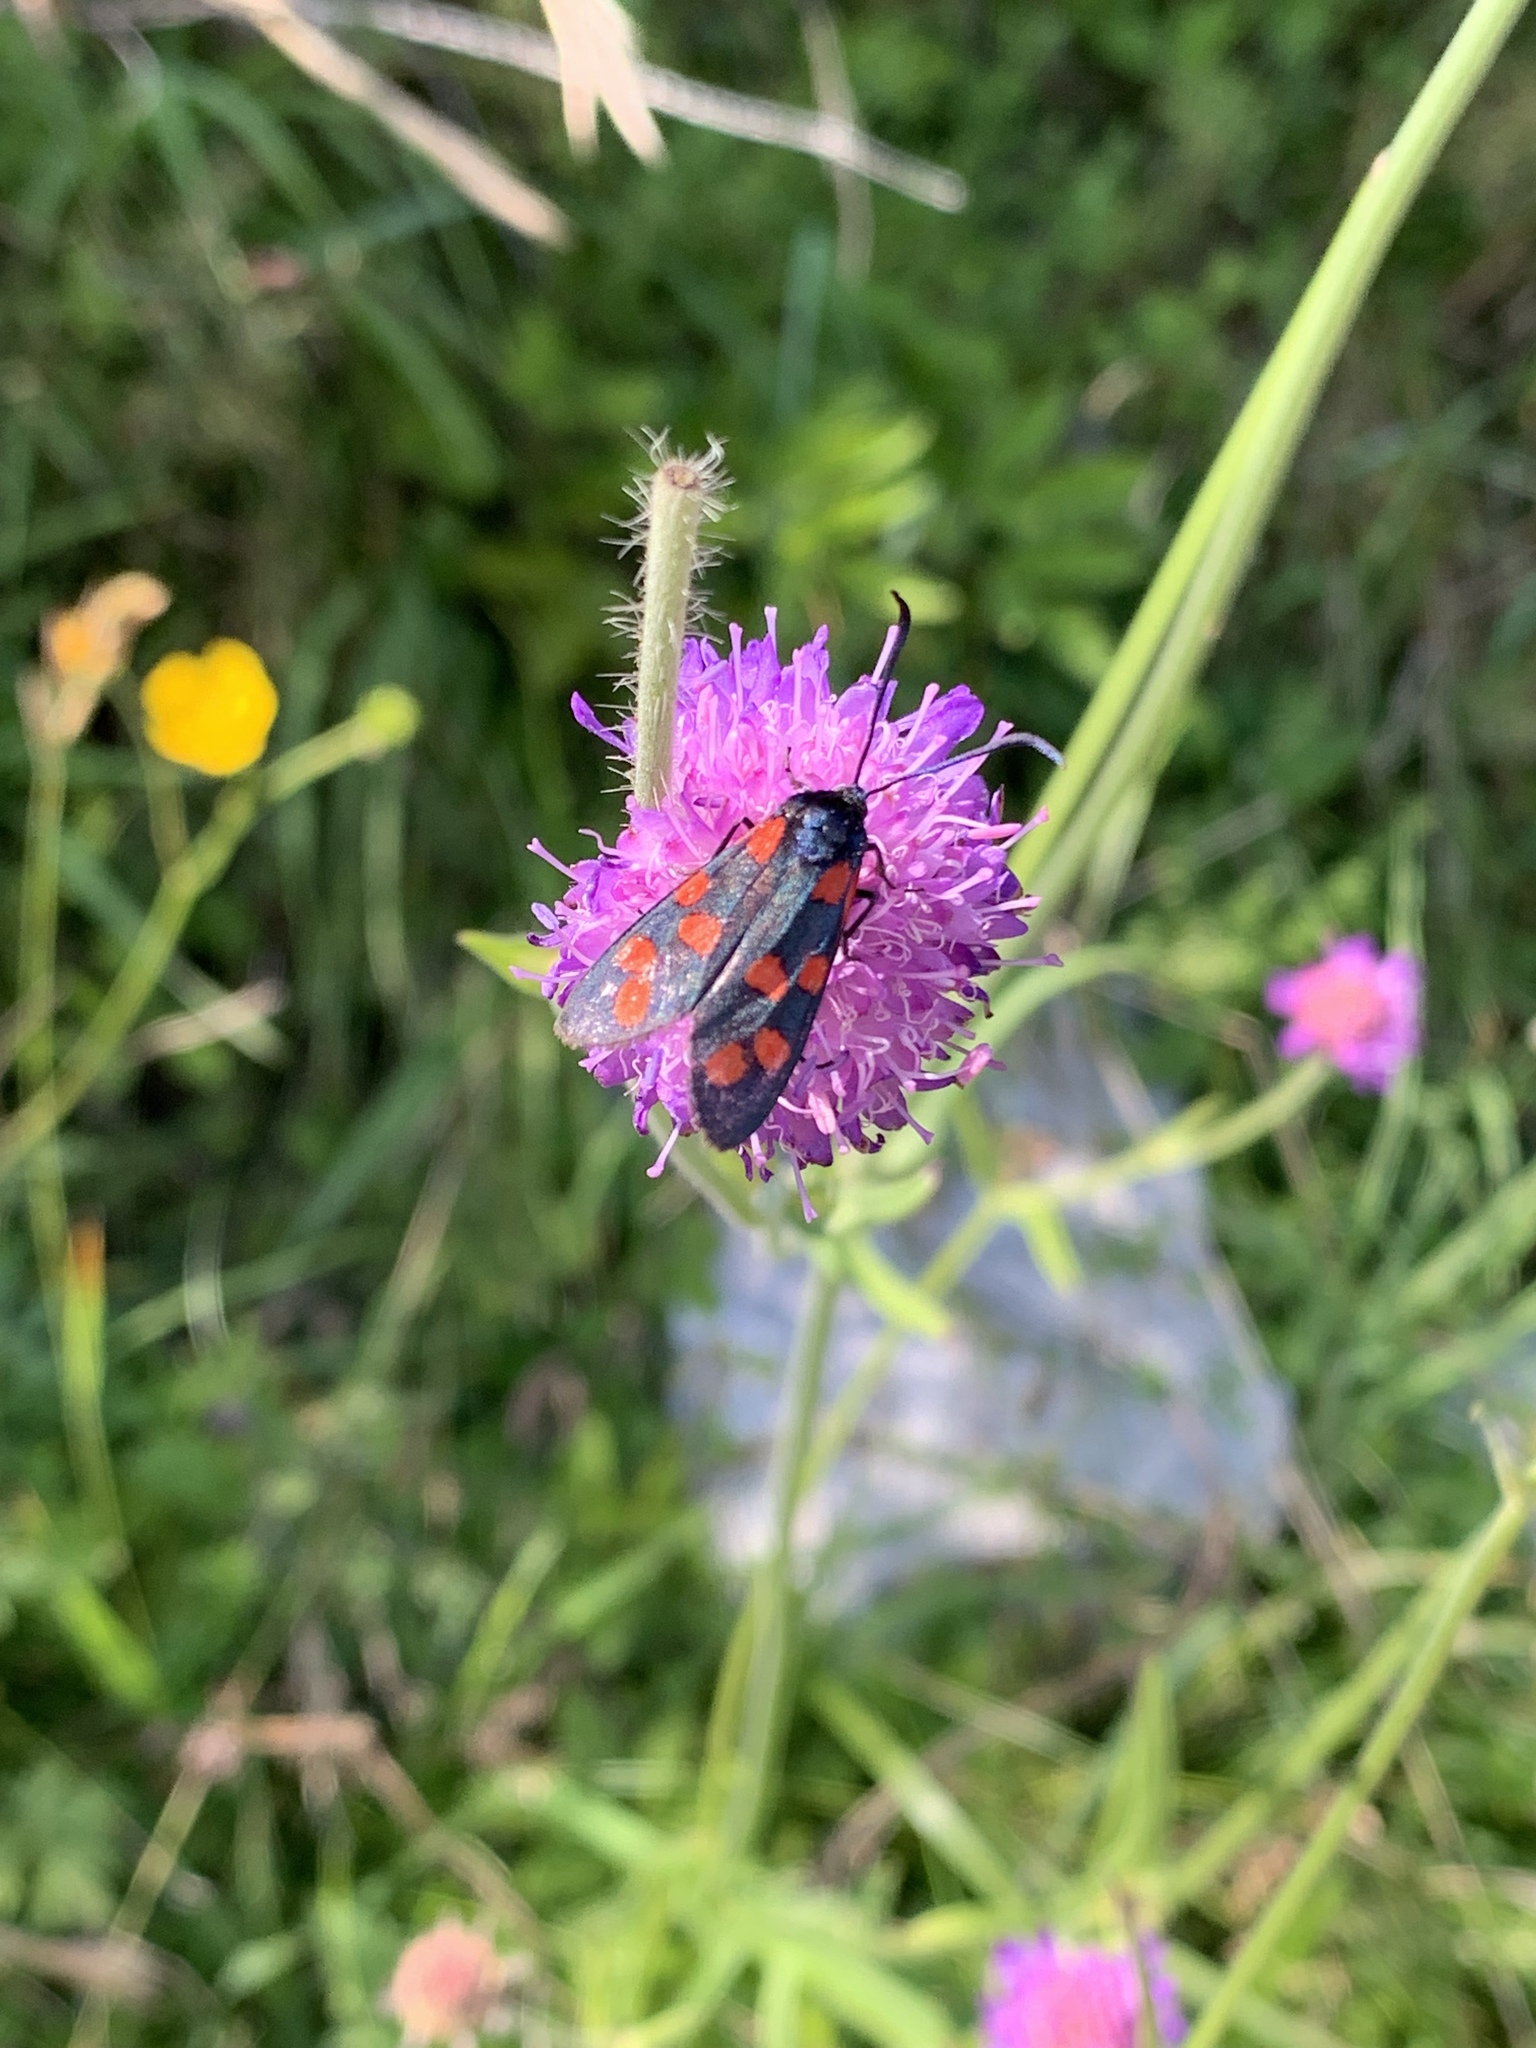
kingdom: Animalia
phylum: Arthropoda
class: Insecta
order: Lepidoptera
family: Zygaenidae
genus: Zygaena
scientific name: Zygaena filipendulae
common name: Six-spot burnet
